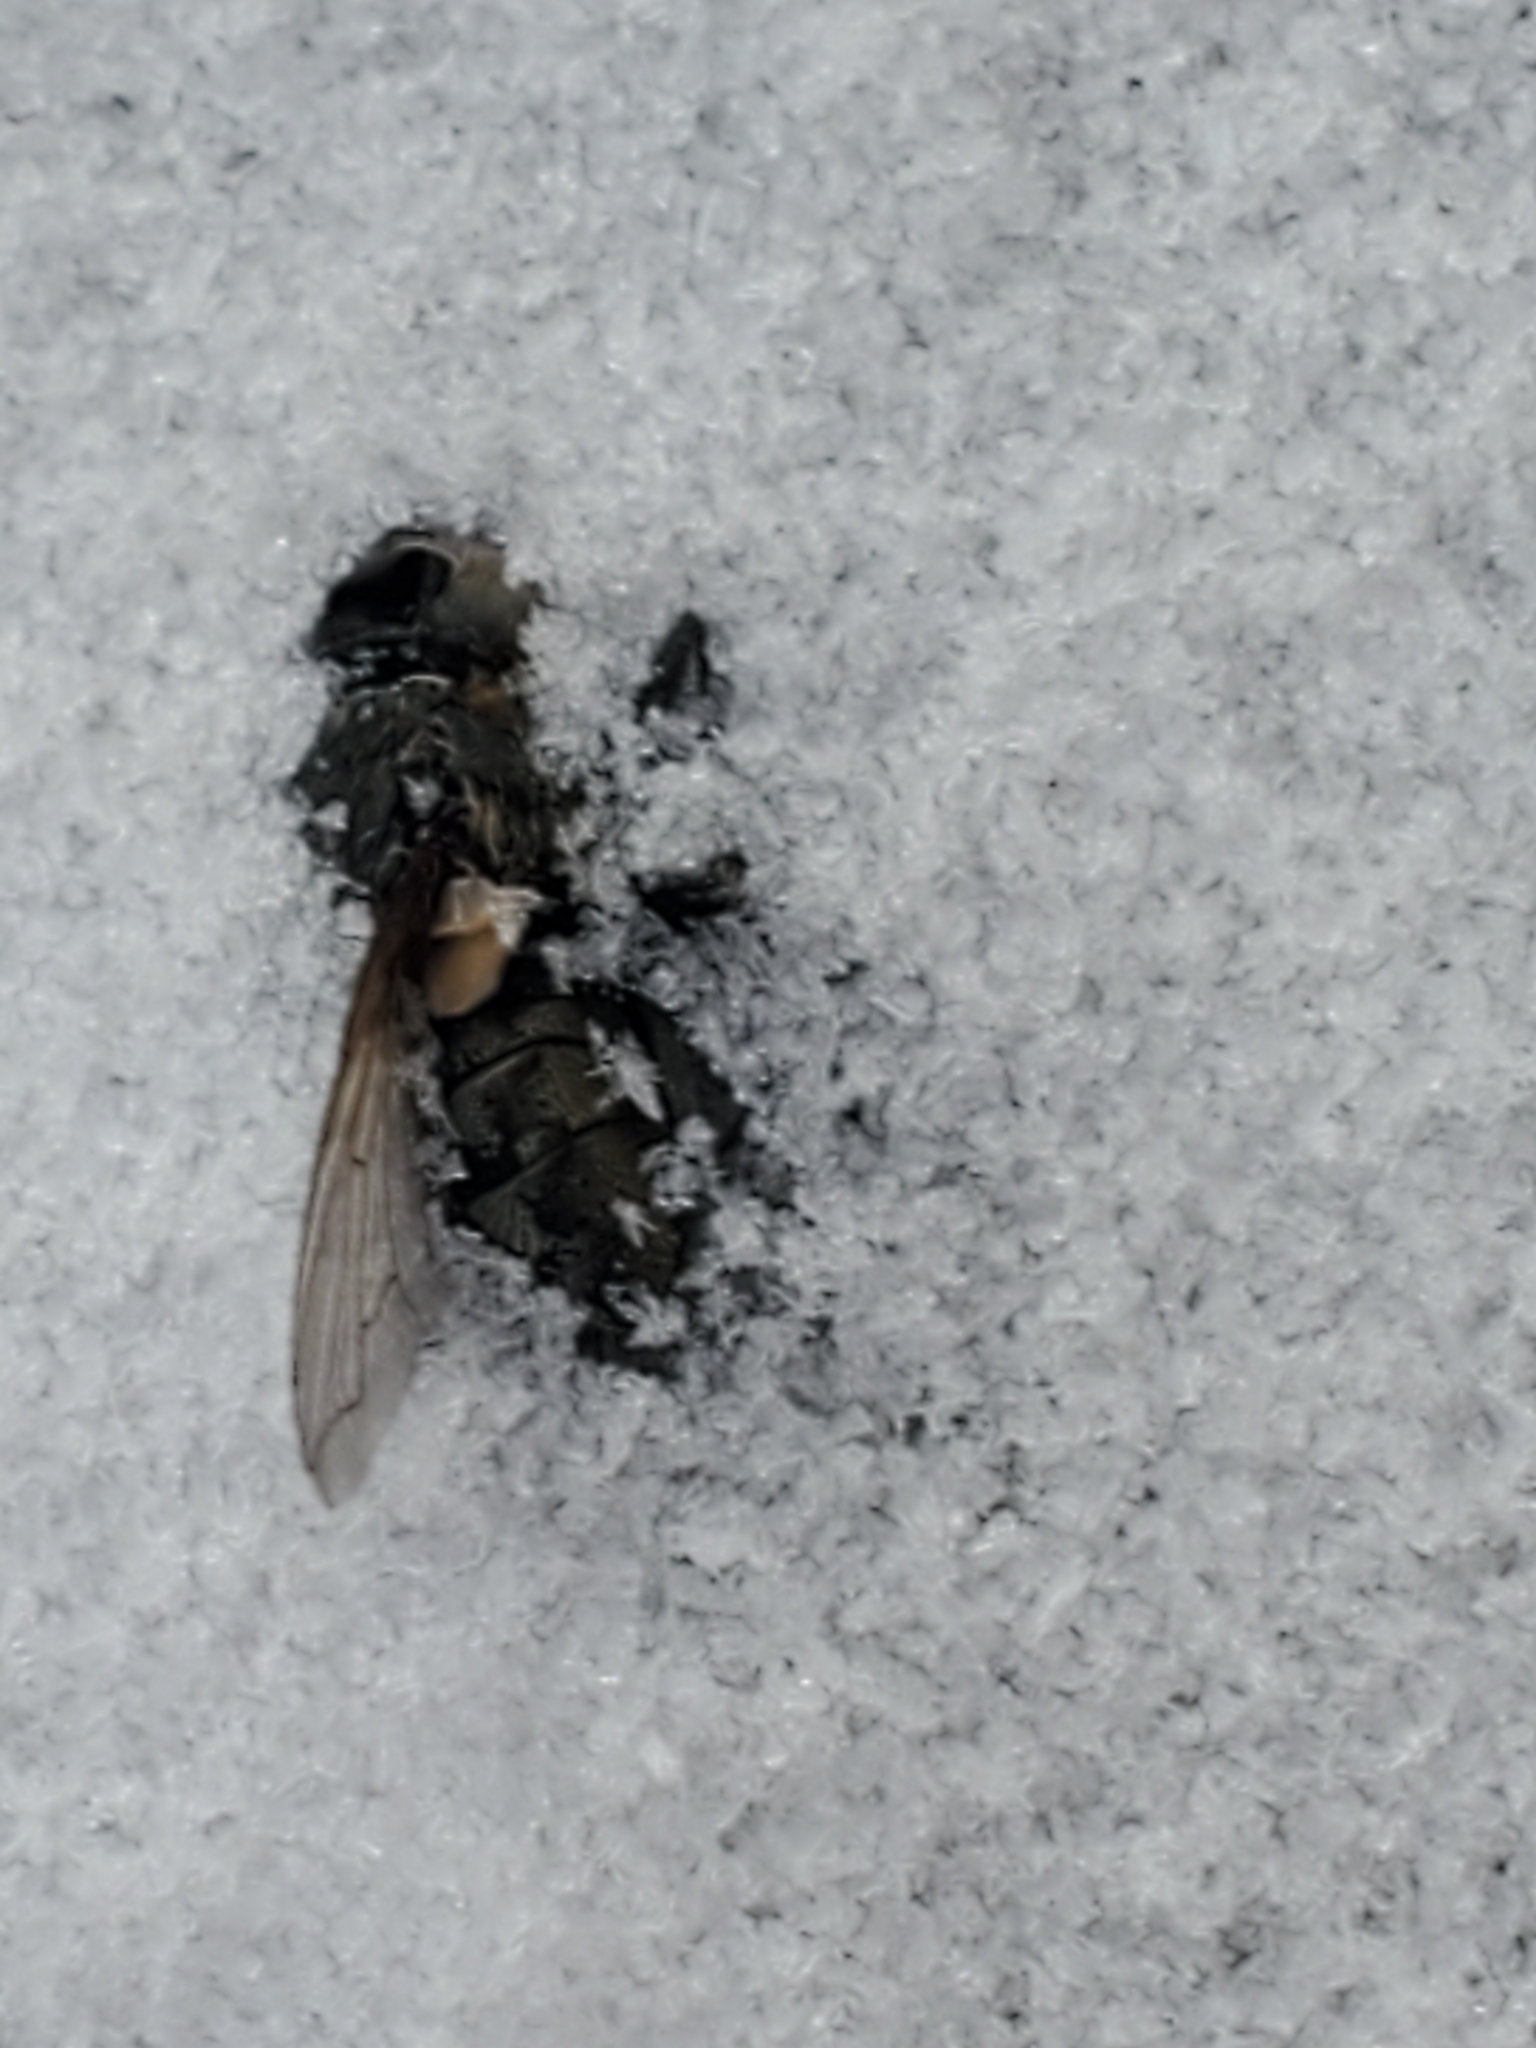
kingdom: Animalia
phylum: Arthropoda
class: Insecta
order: Diptera
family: Polleniidae
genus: Pollenia
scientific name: Pollenia
